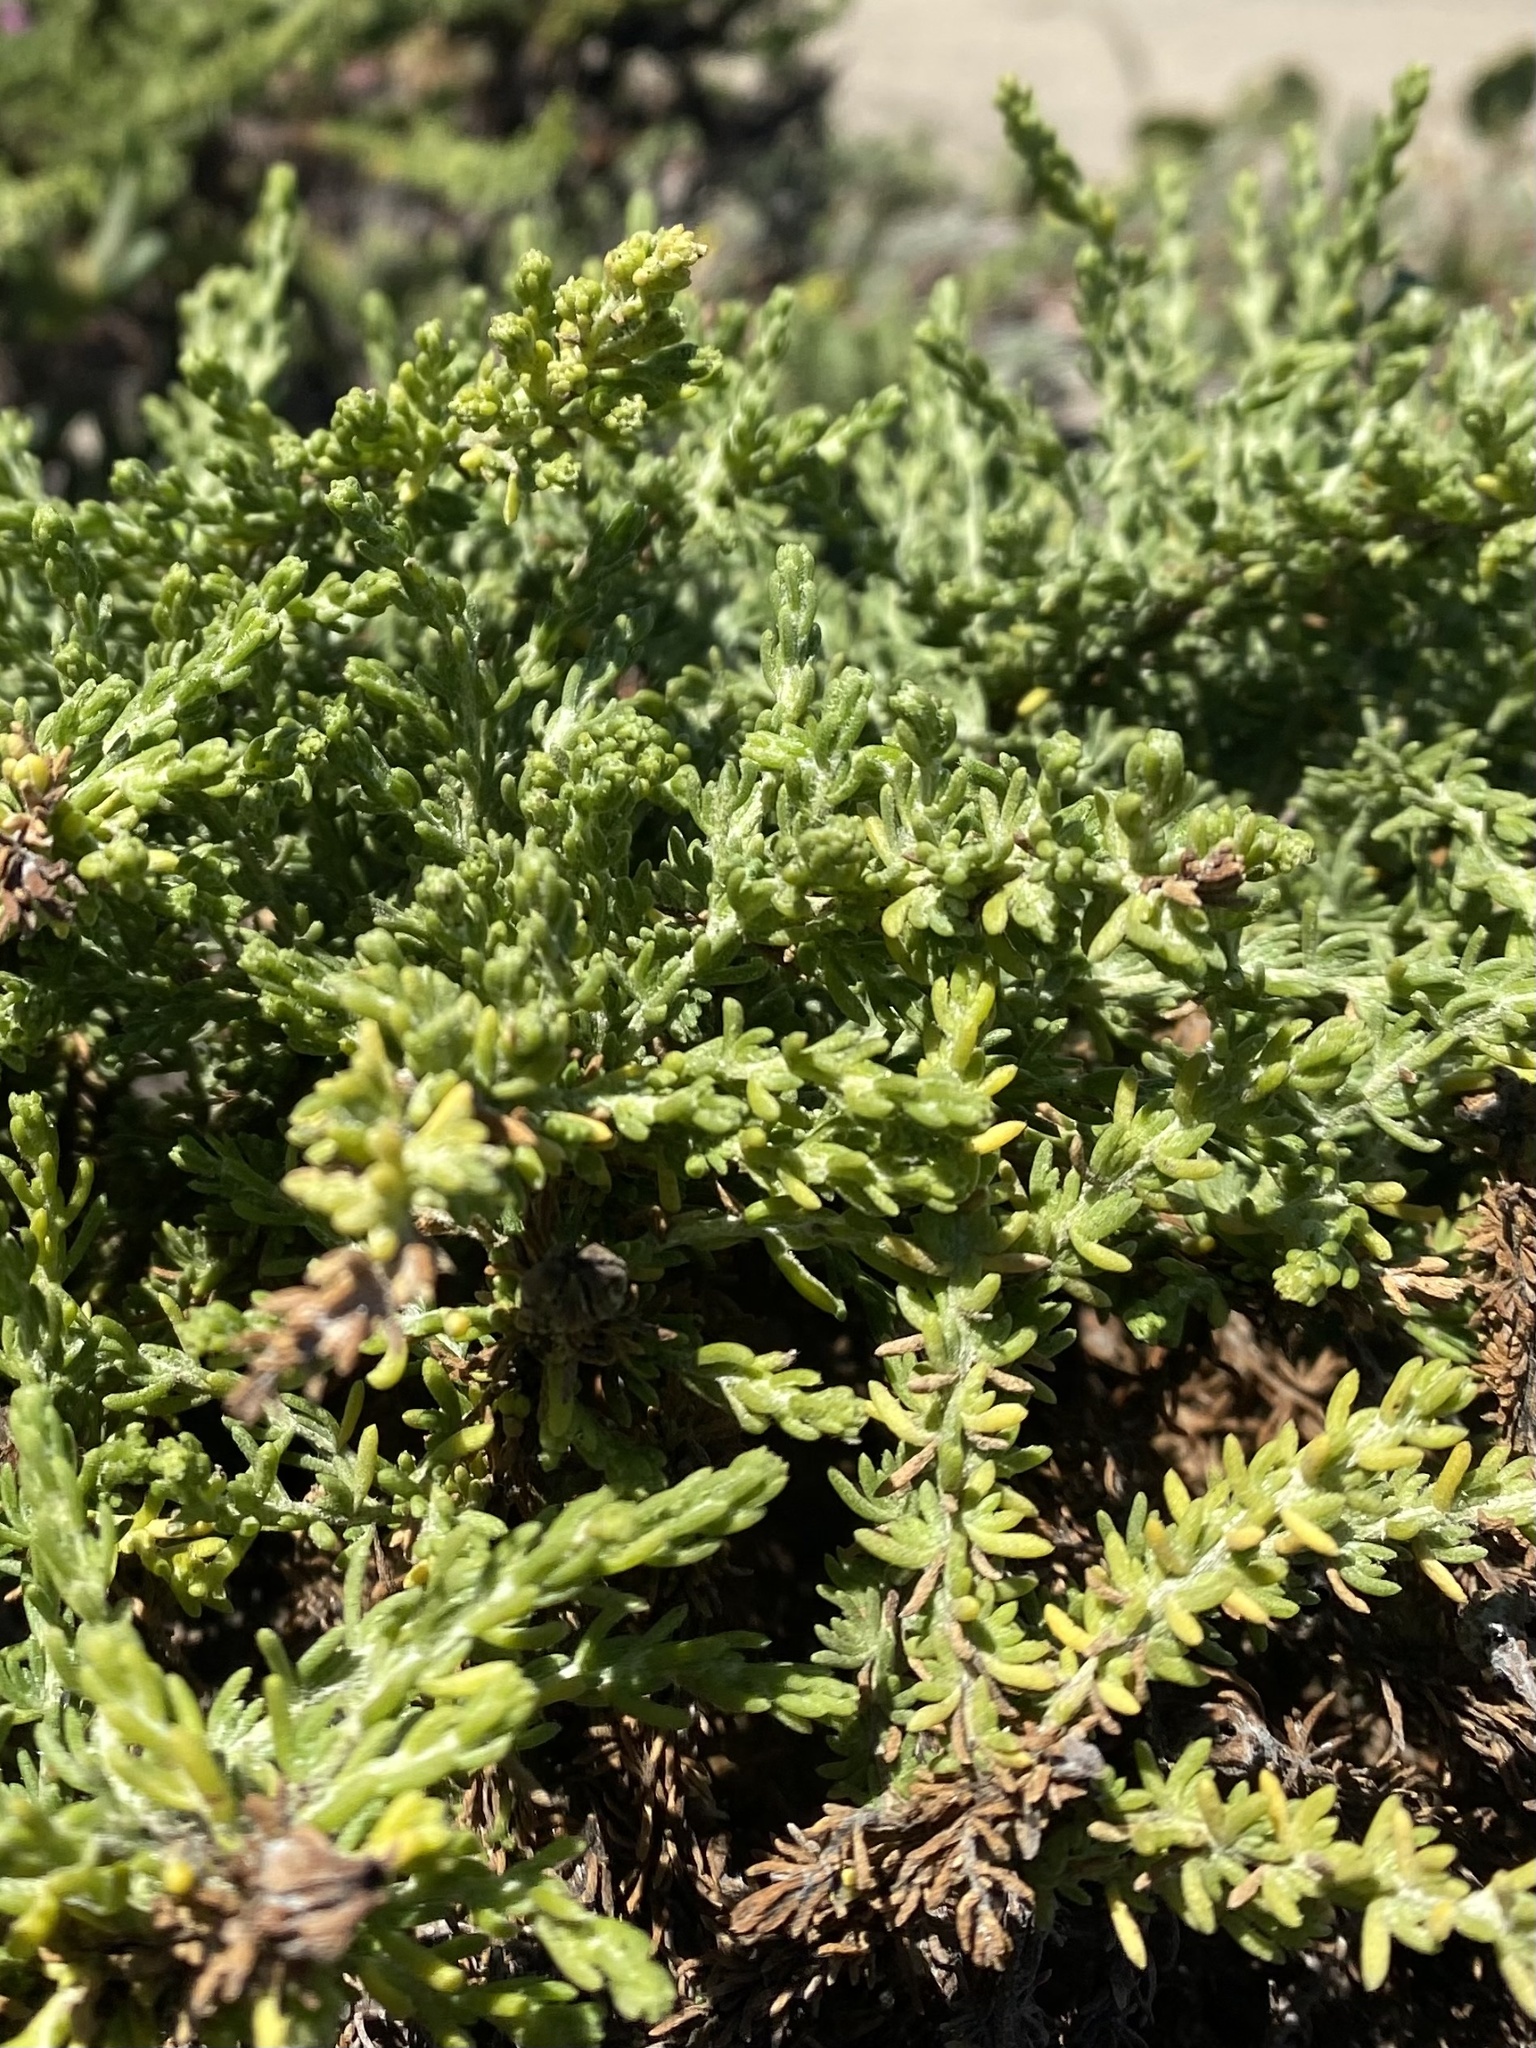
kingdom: Plantae
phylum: Tracheophyta
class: Magnoliopsida
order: Asterales
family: Asteraceae
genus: Ericameria
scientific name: Ericameria ericoides
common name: California goldenbush
